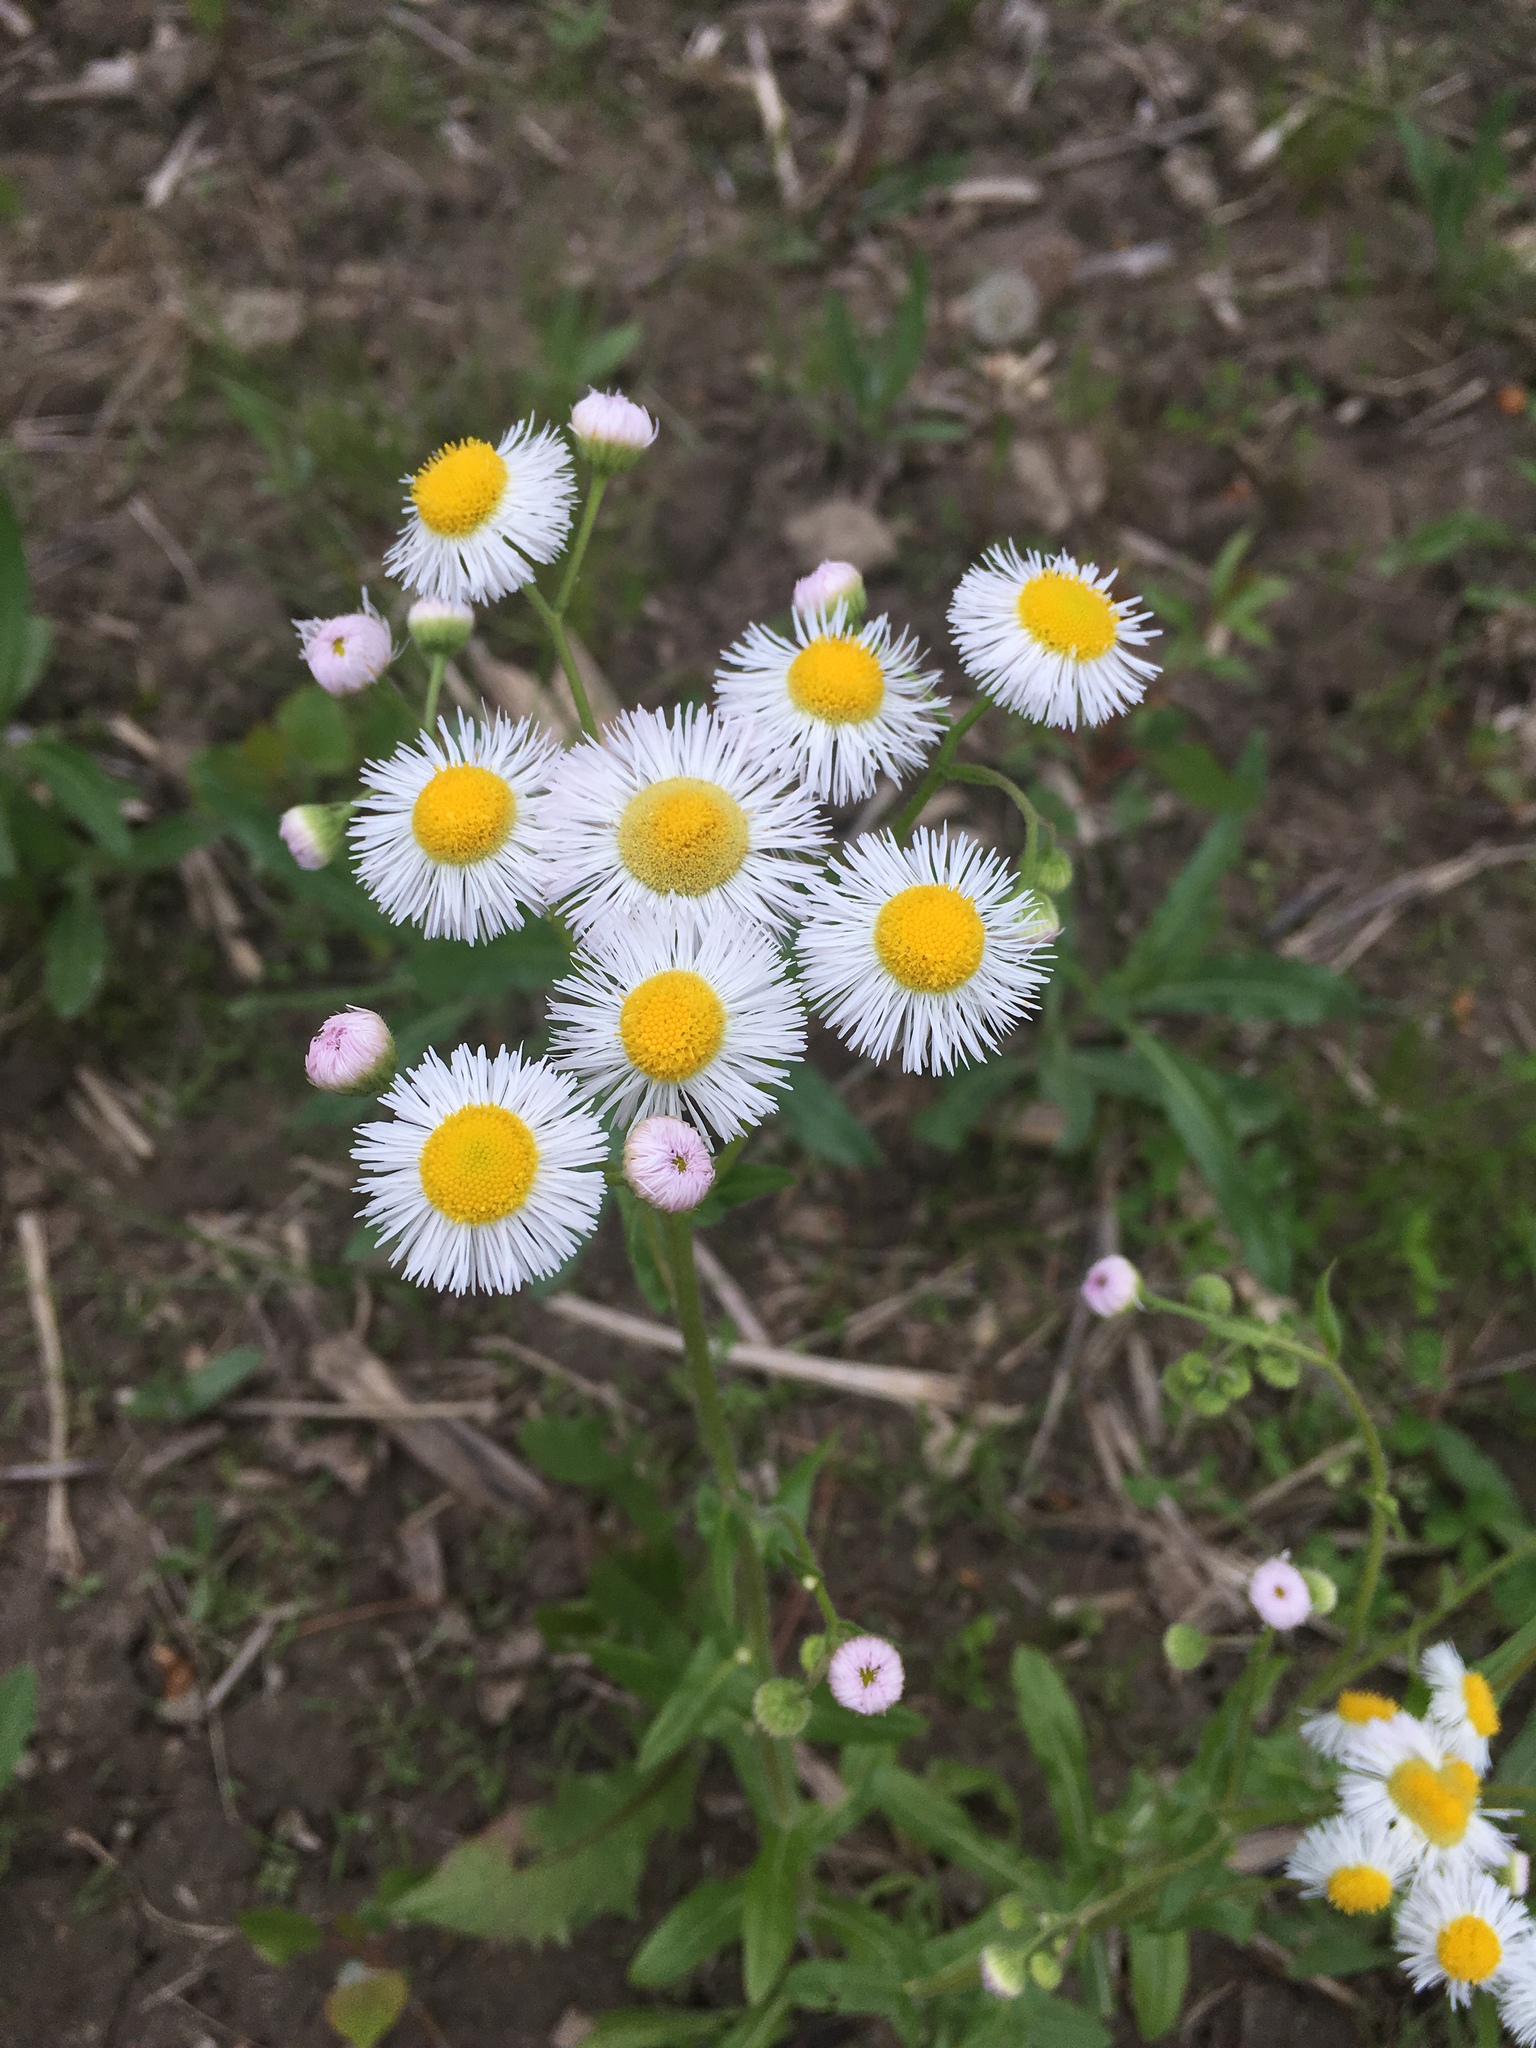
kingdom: Plantae
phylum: Tracheophyta
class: Magnoliopsida
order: Asterales
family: Asteraceae
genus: Erigeron
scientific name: Erigeron strigosus
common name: Common eastern fleabane
